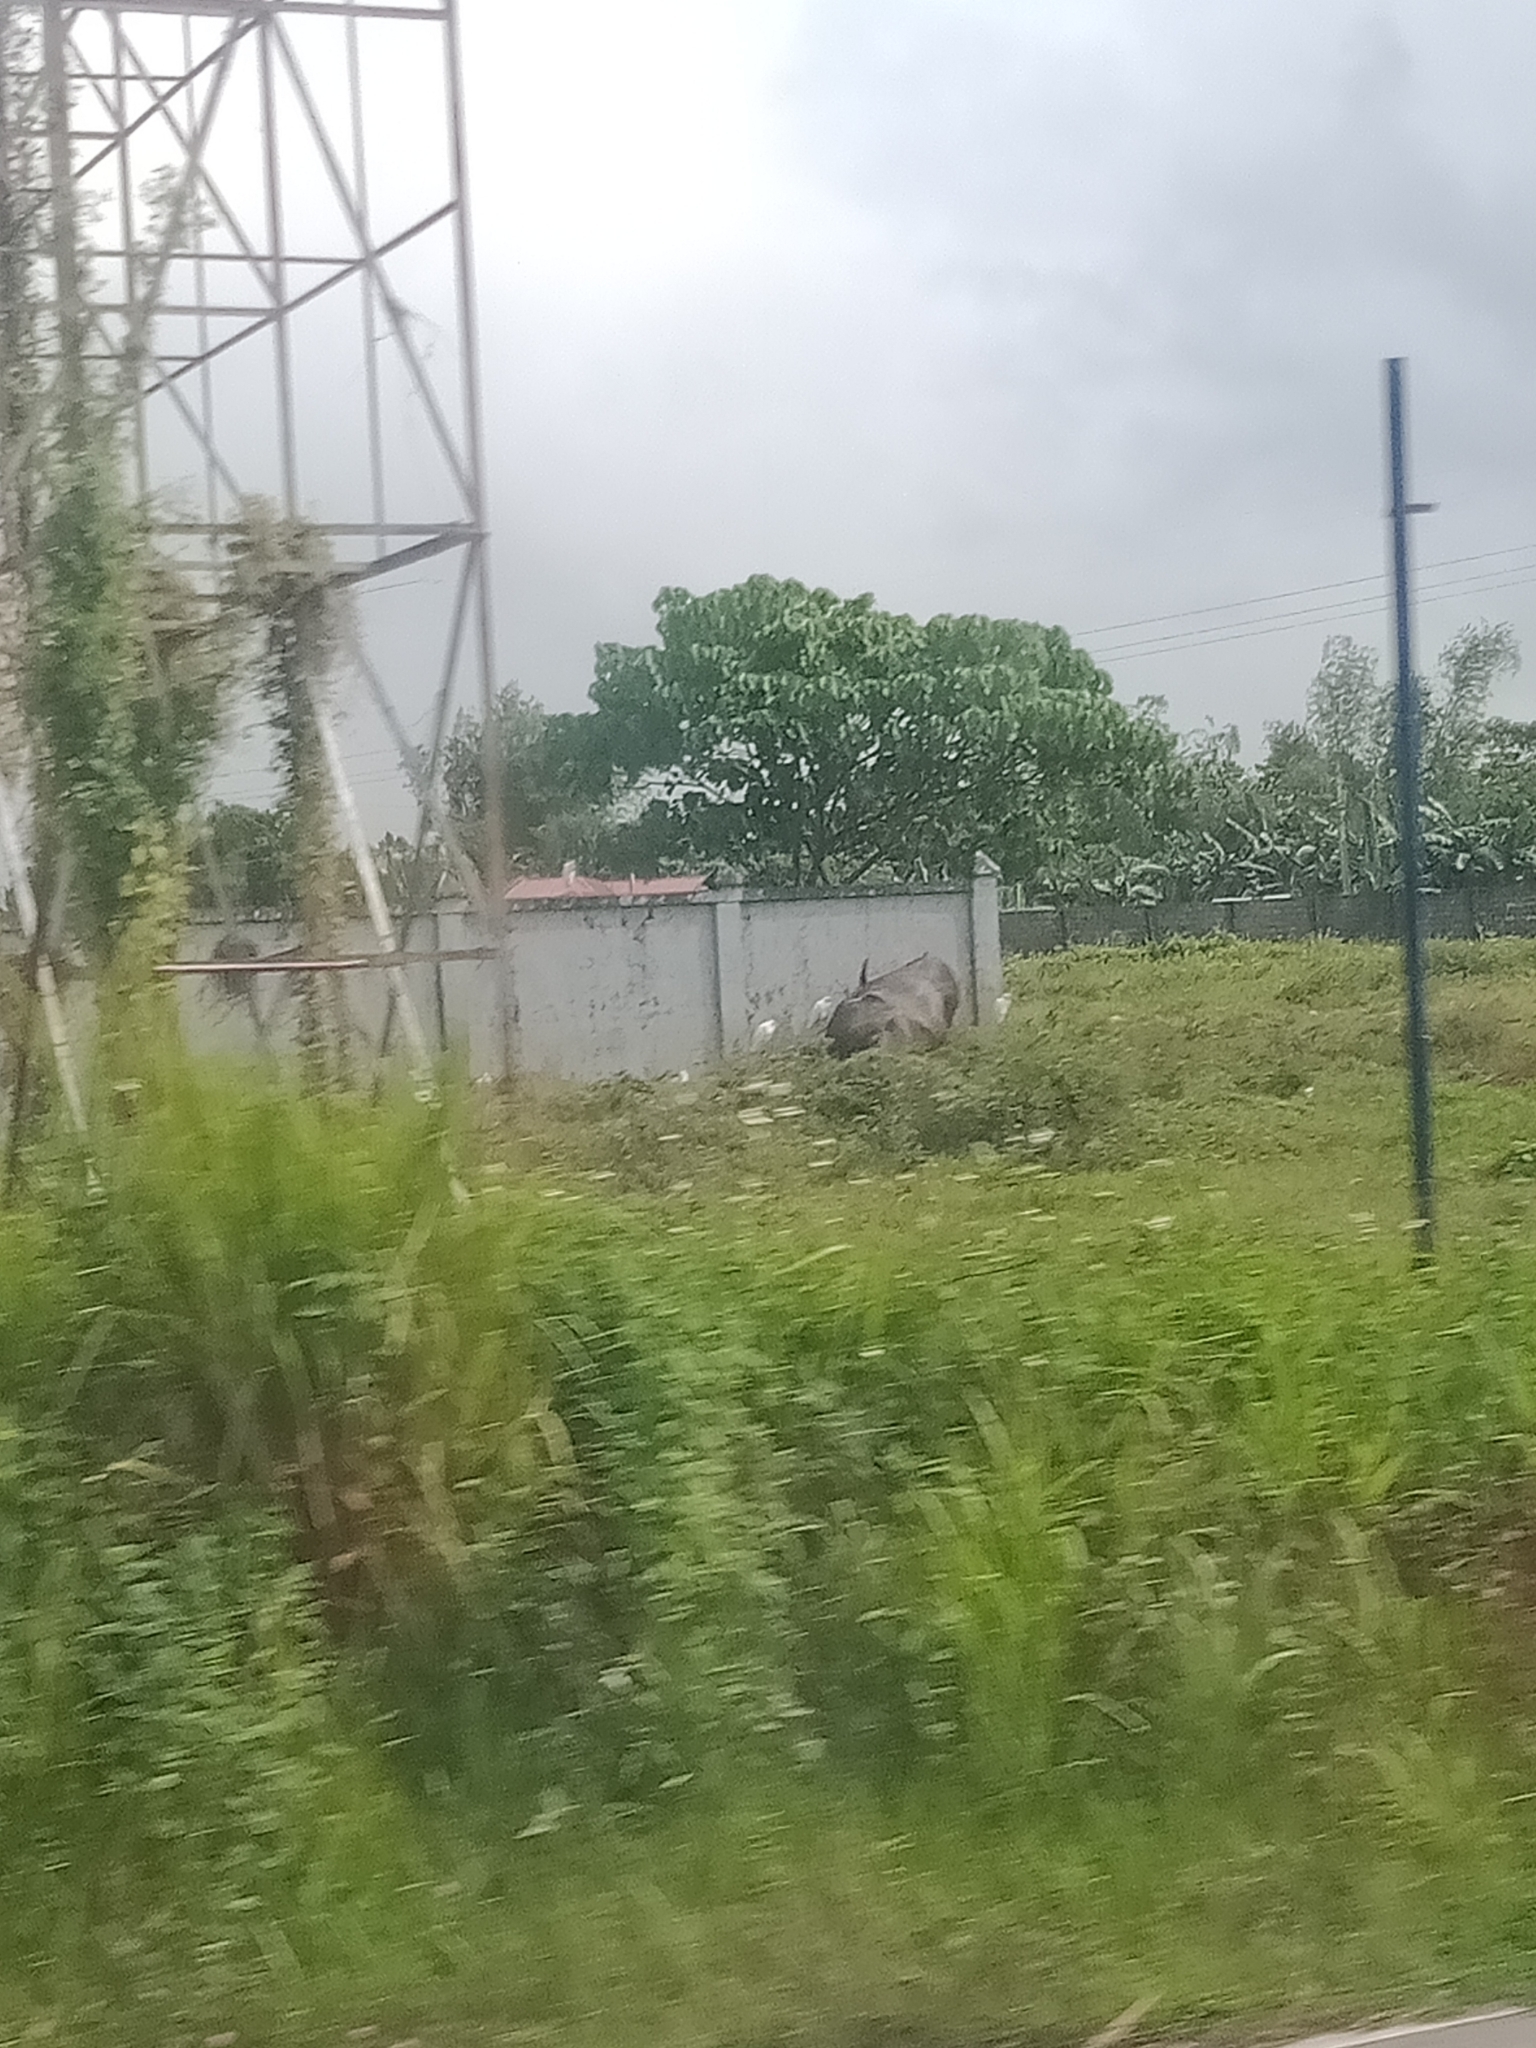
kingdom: Animalia
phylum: Chordata
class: Aves
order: Pelecaniformes
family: Ardeidae
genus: Bubulcus
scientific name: Bubulcus coromandus
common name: Eastern cattle egret
